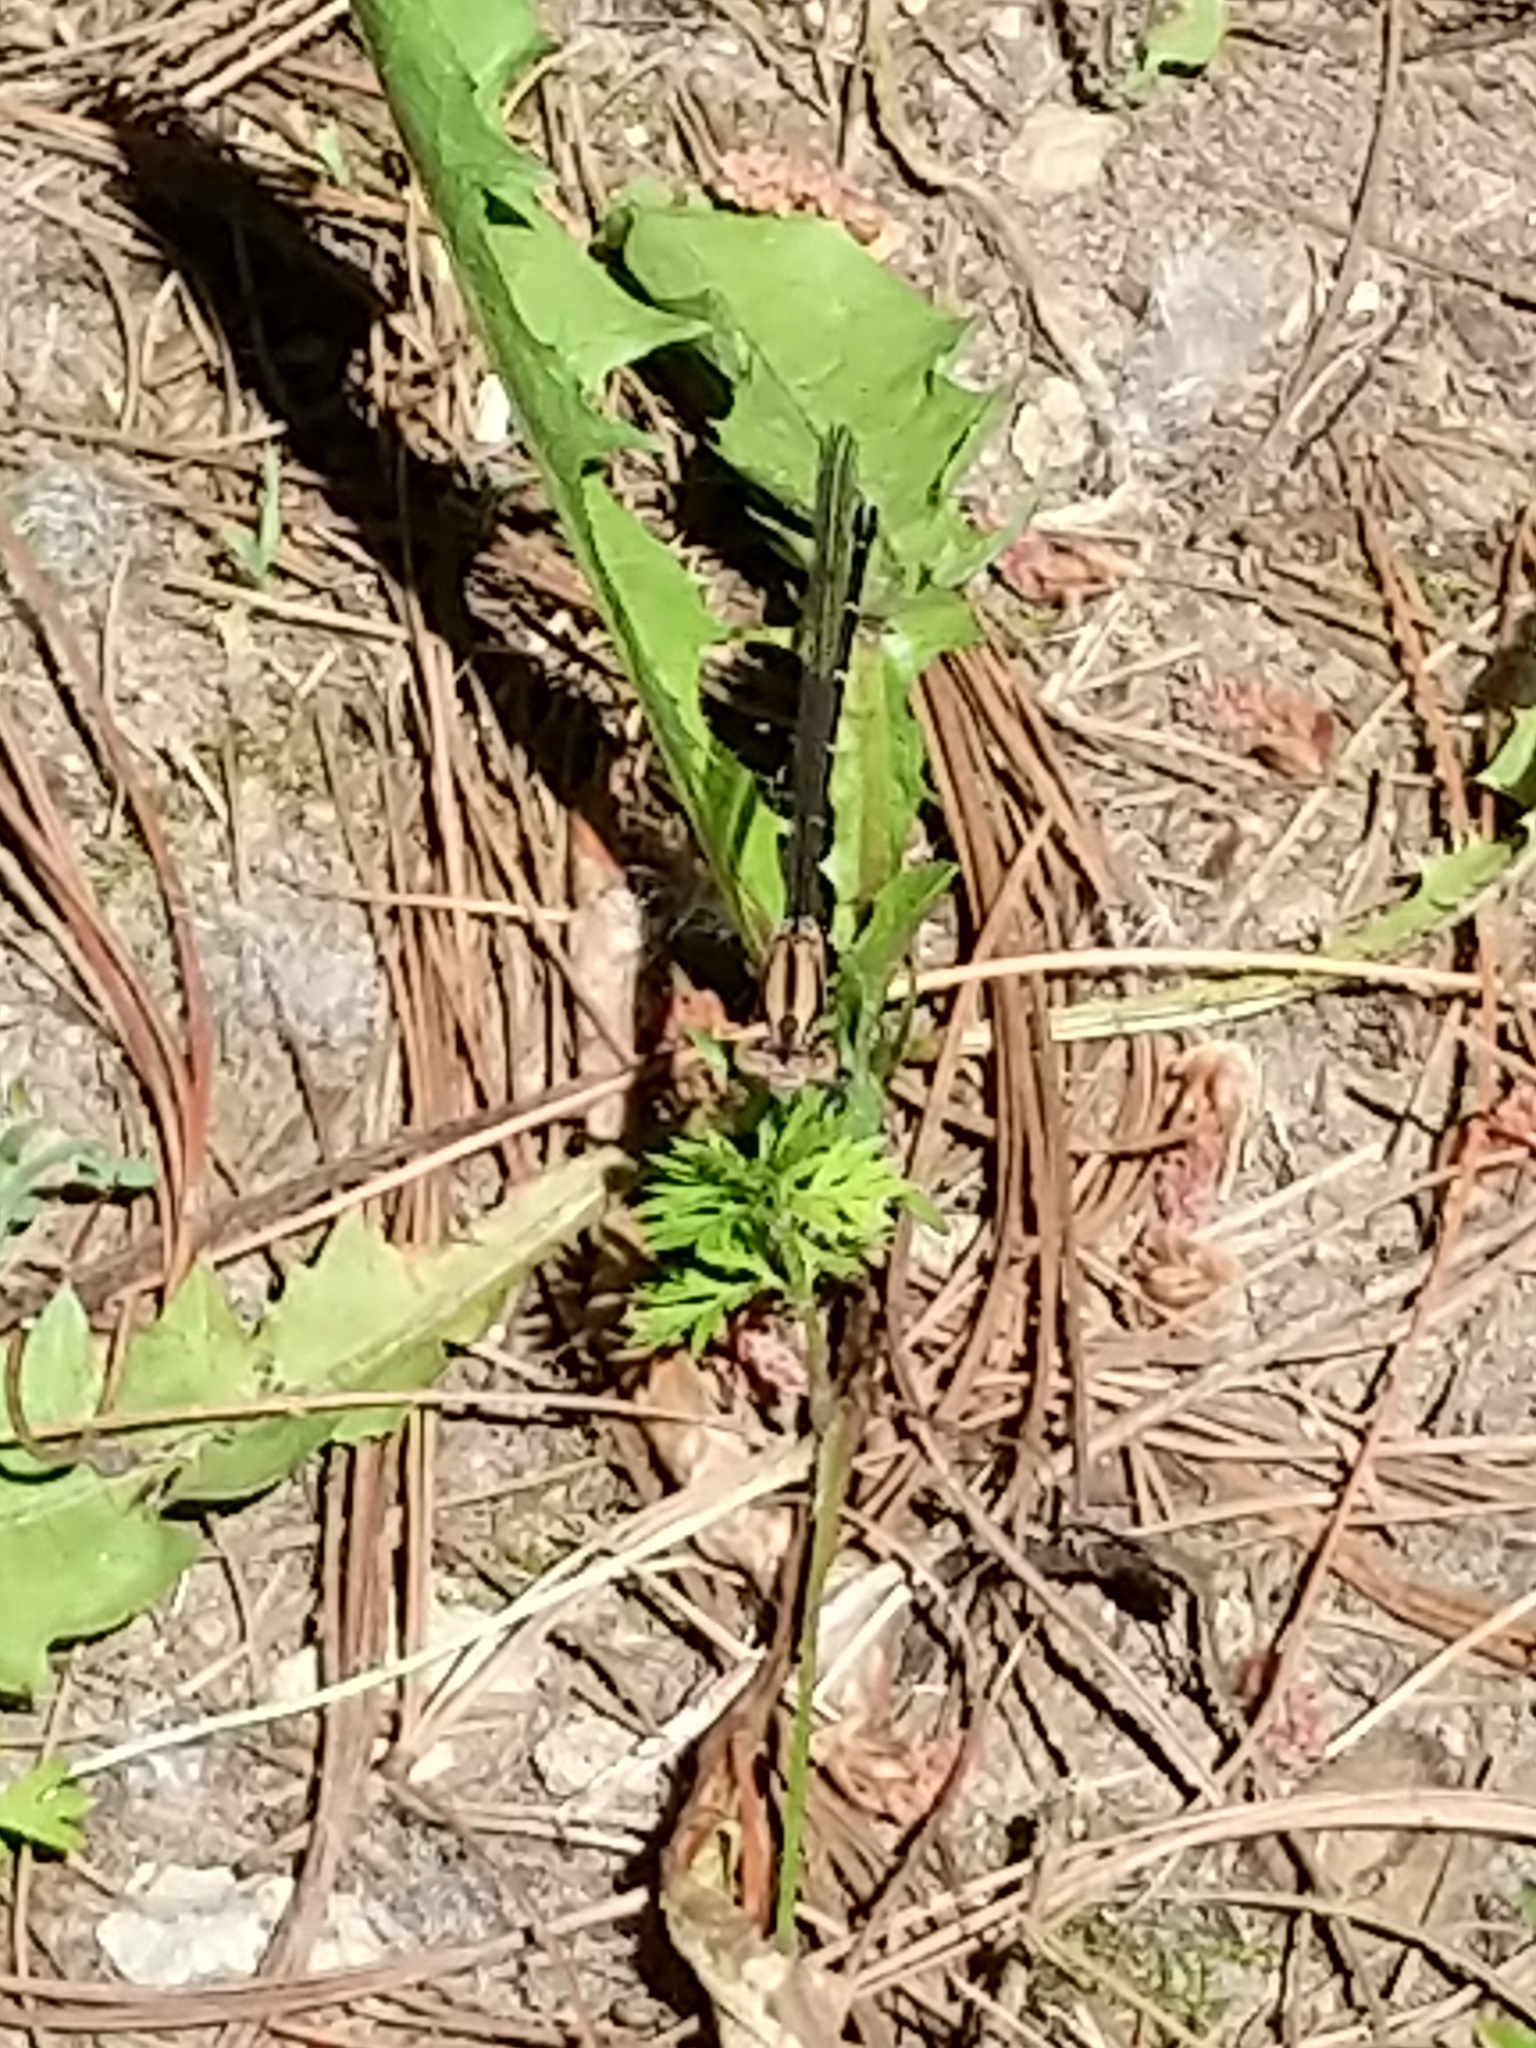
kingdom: Animalia
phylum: Arthropoda
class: Insecta
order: Odonata
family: Coenagrionidae
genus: Argia
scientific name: Argia tibialis
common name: Blue-tipped dancer
